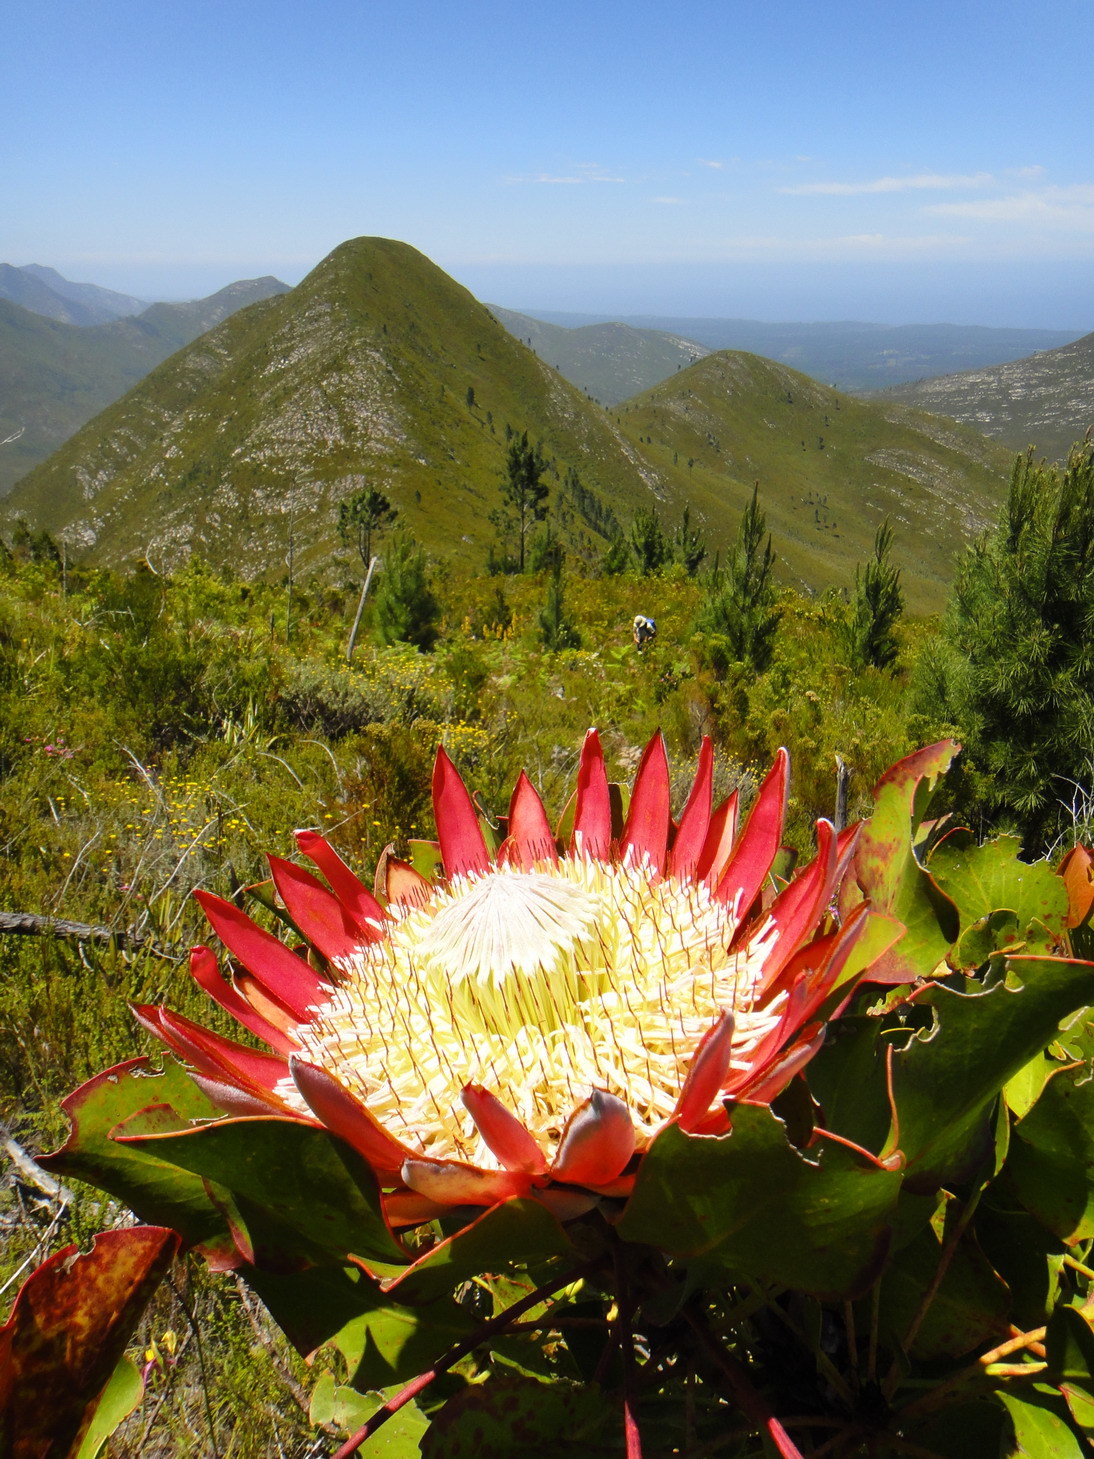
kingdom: Plantae
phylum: Tracheophyta
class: Magnoliopsida
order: Proteales
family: Proteaceae
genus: Protea
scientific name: Protea cynaroides
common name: King protea
